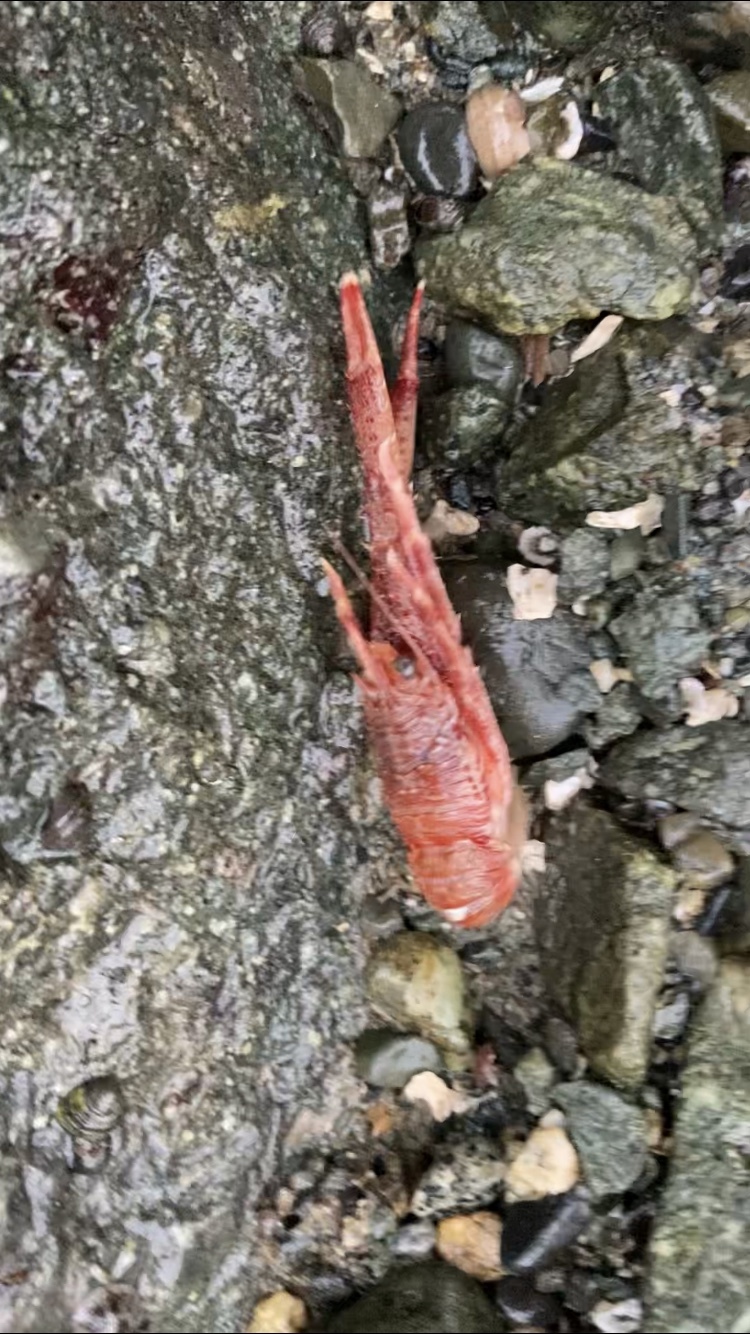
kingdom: Animalia
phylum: Arthropoda
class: Malacostraca
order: Decapoda
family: Munididae
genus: Grimothea
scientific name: Grimothea quadrispina
